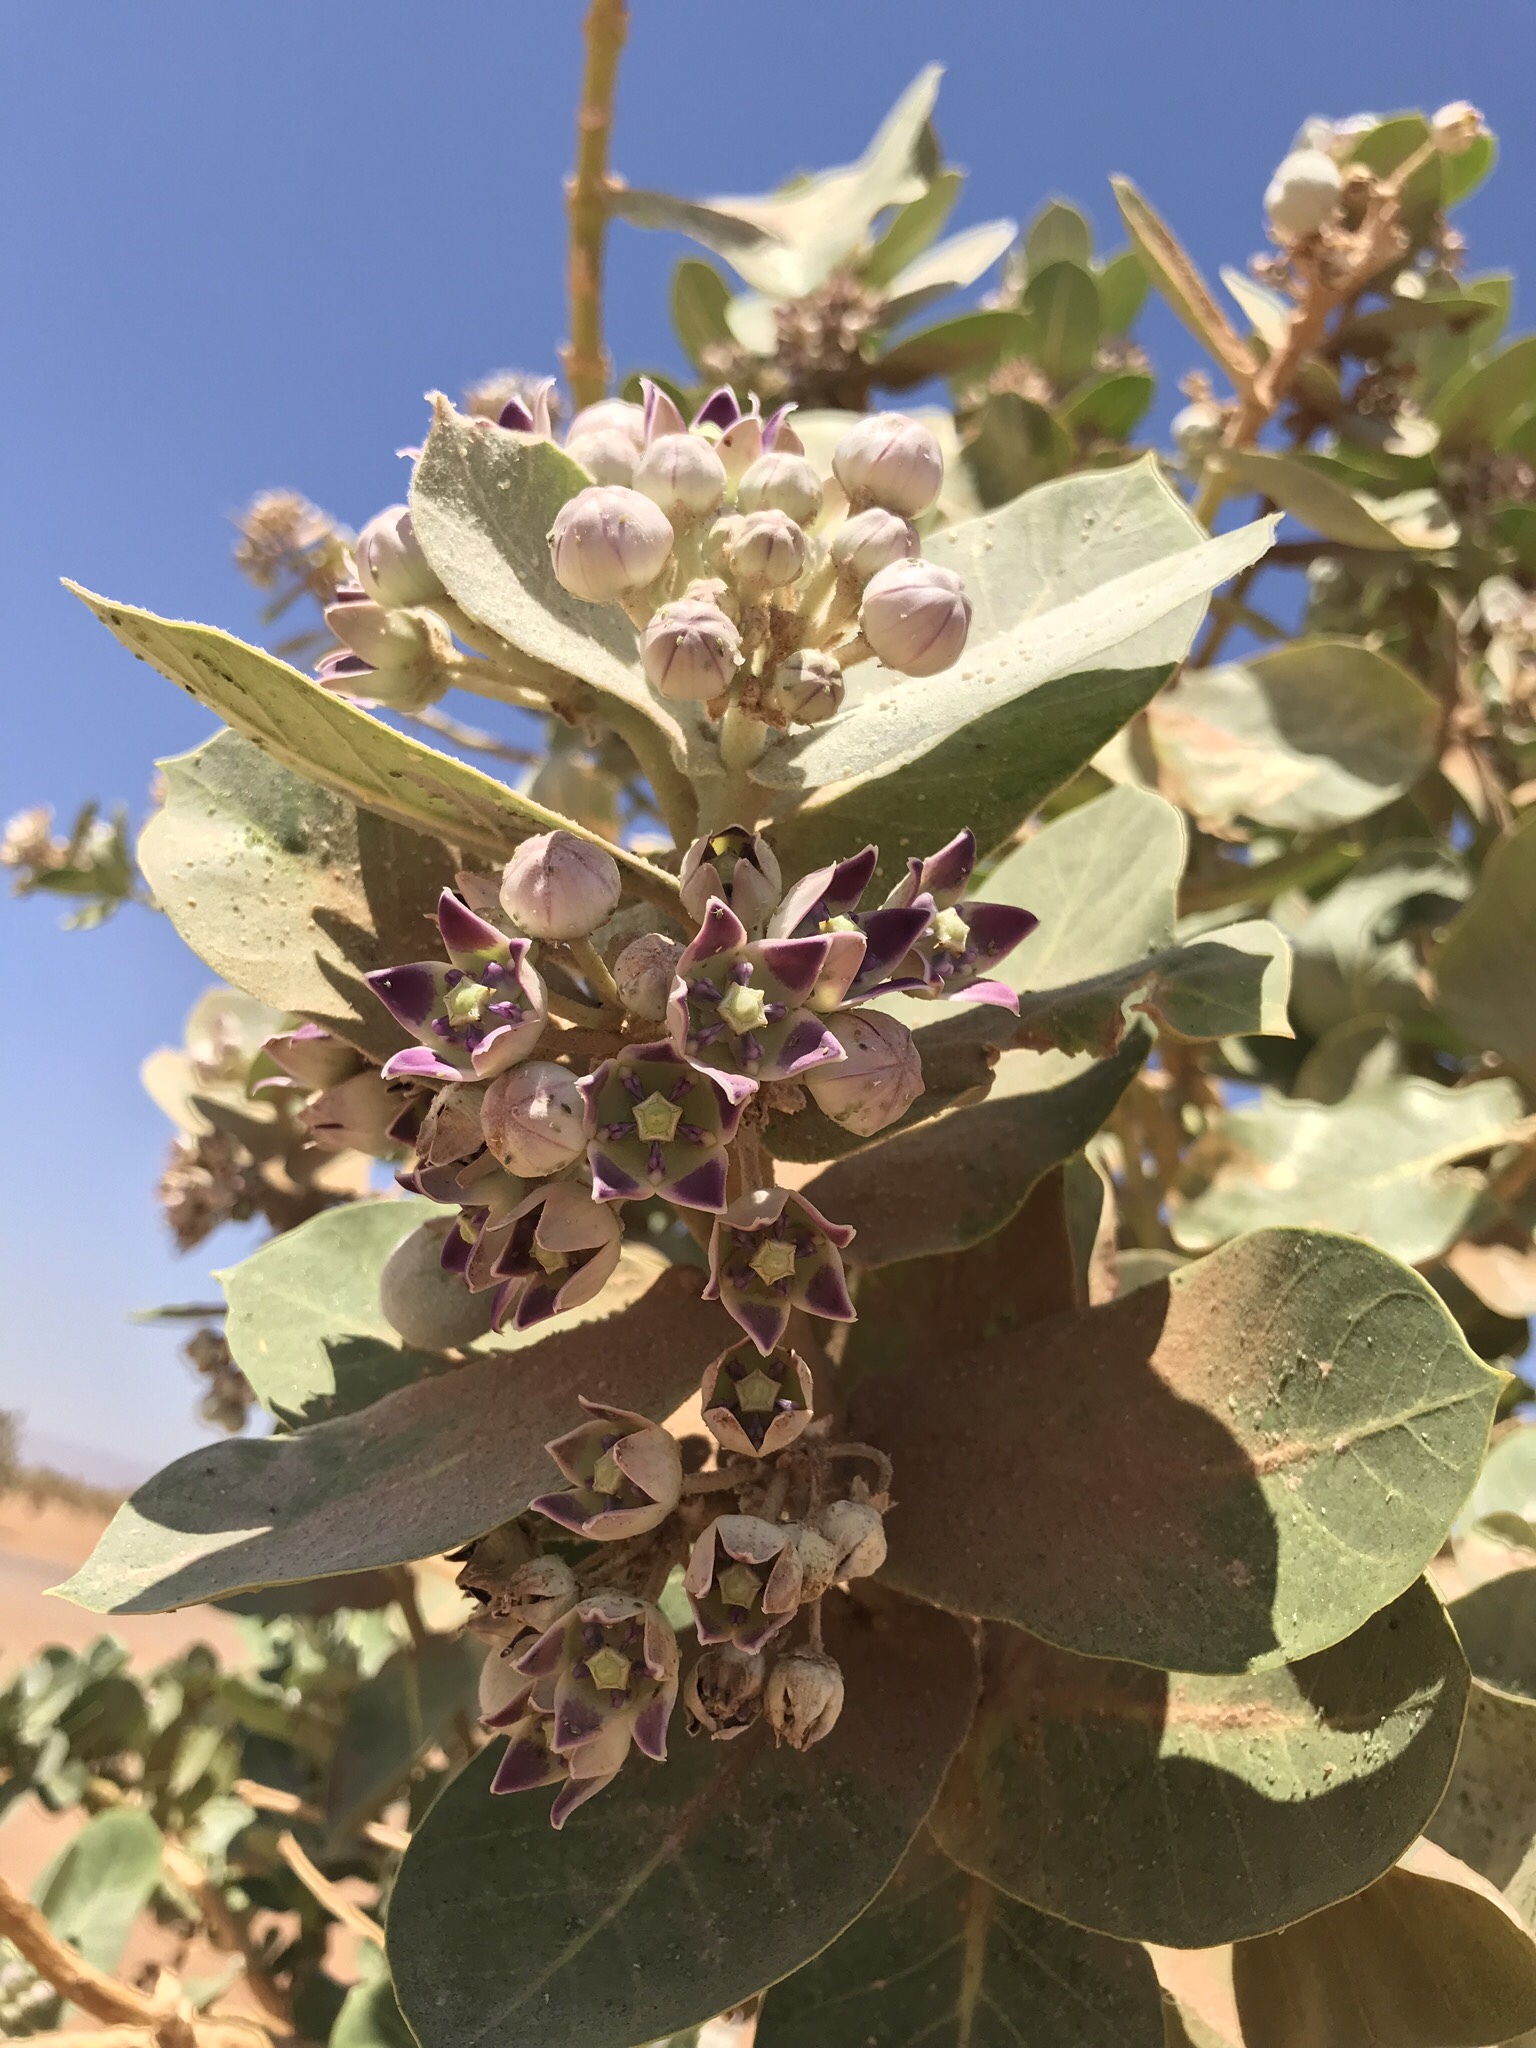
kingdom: Plantae
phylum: Tracheophyta
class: Magnoliopsida
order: Gentianales
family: Apocynaceae
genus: Calotropis
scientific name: Calotropis procera
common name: Roostertree
